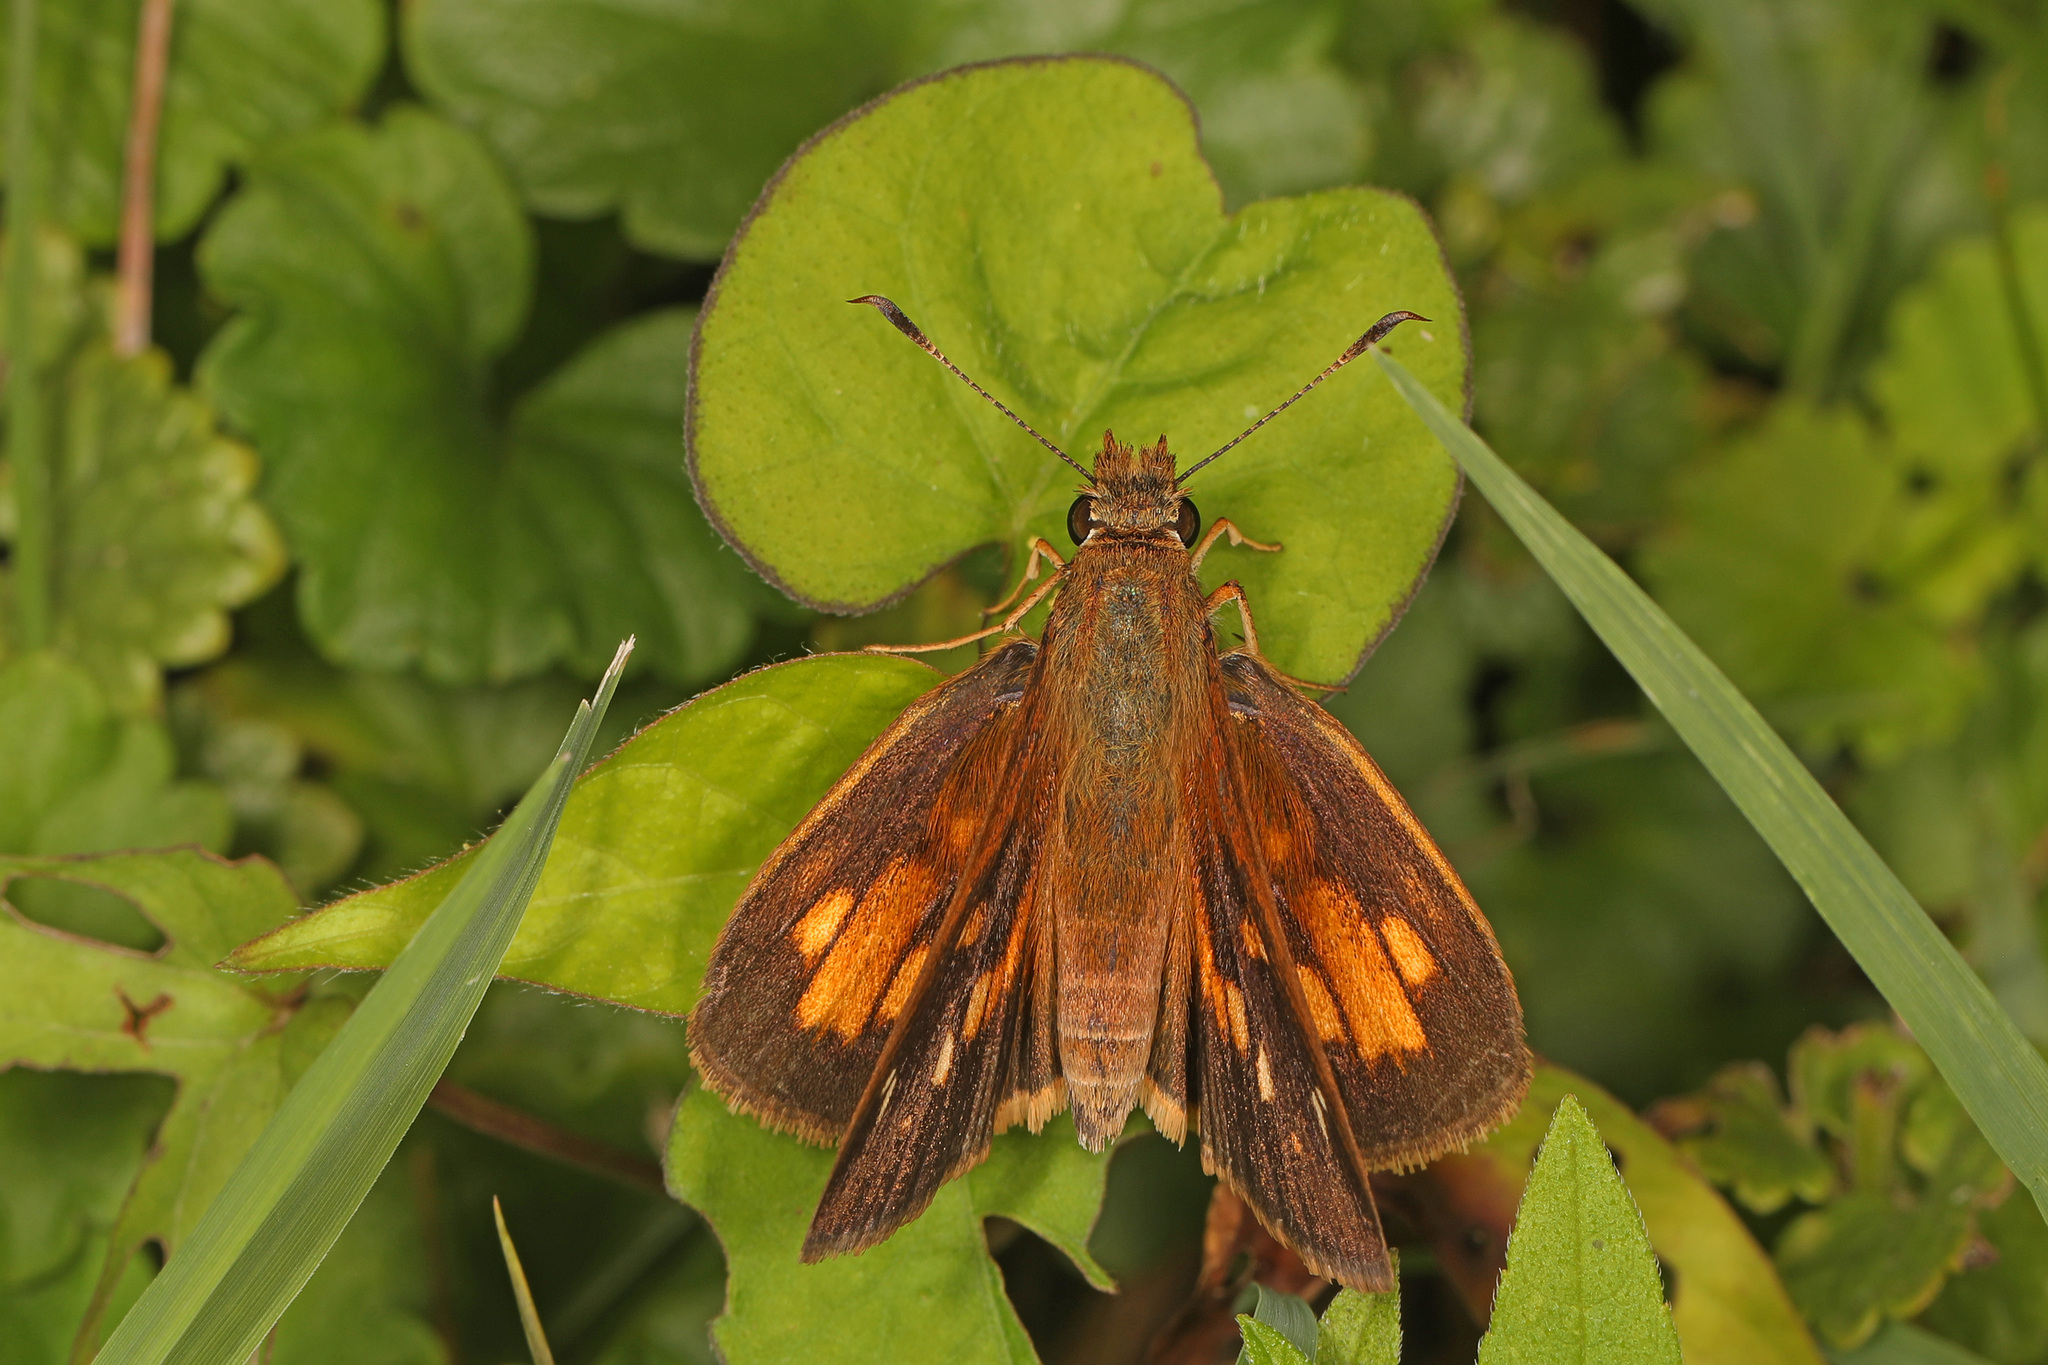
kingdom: Animalia
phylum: Arthropoda
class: Insecta
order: Lepidoptera
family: Hesperiidae
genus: Poanes
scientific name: Poanes viator
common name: Broad-winged skipper
